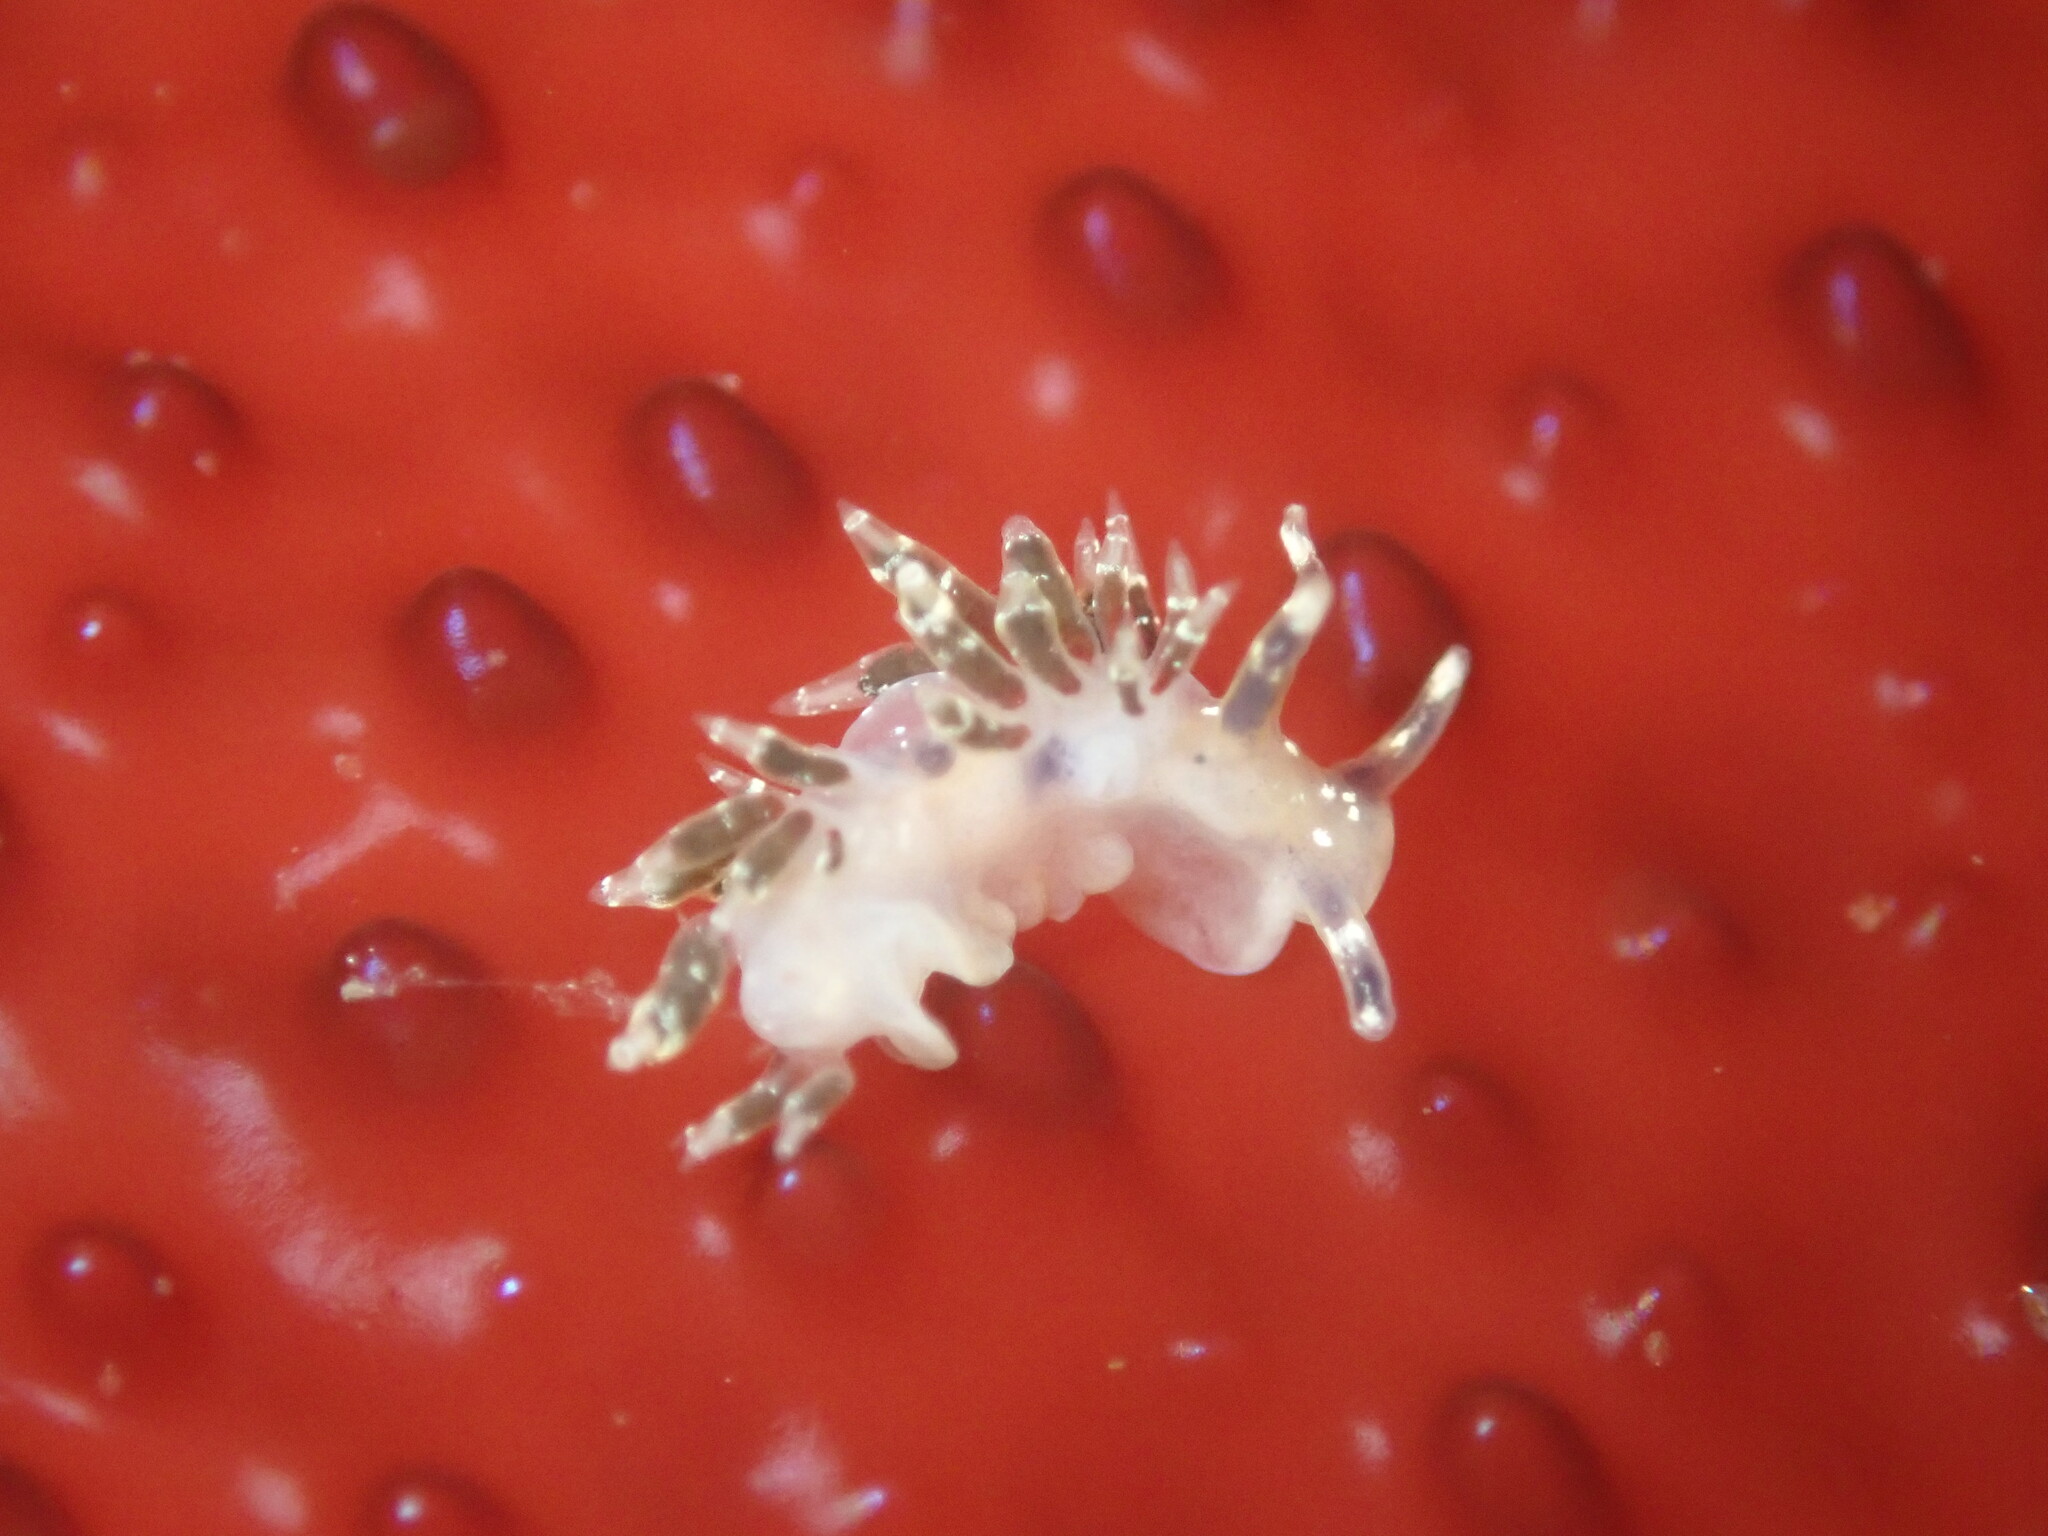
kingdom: Animalia
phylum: Mollusca
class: Gastropoda
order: Nudibranchia
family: Abronicidae
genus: Abronica
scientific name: Abronica abronia
